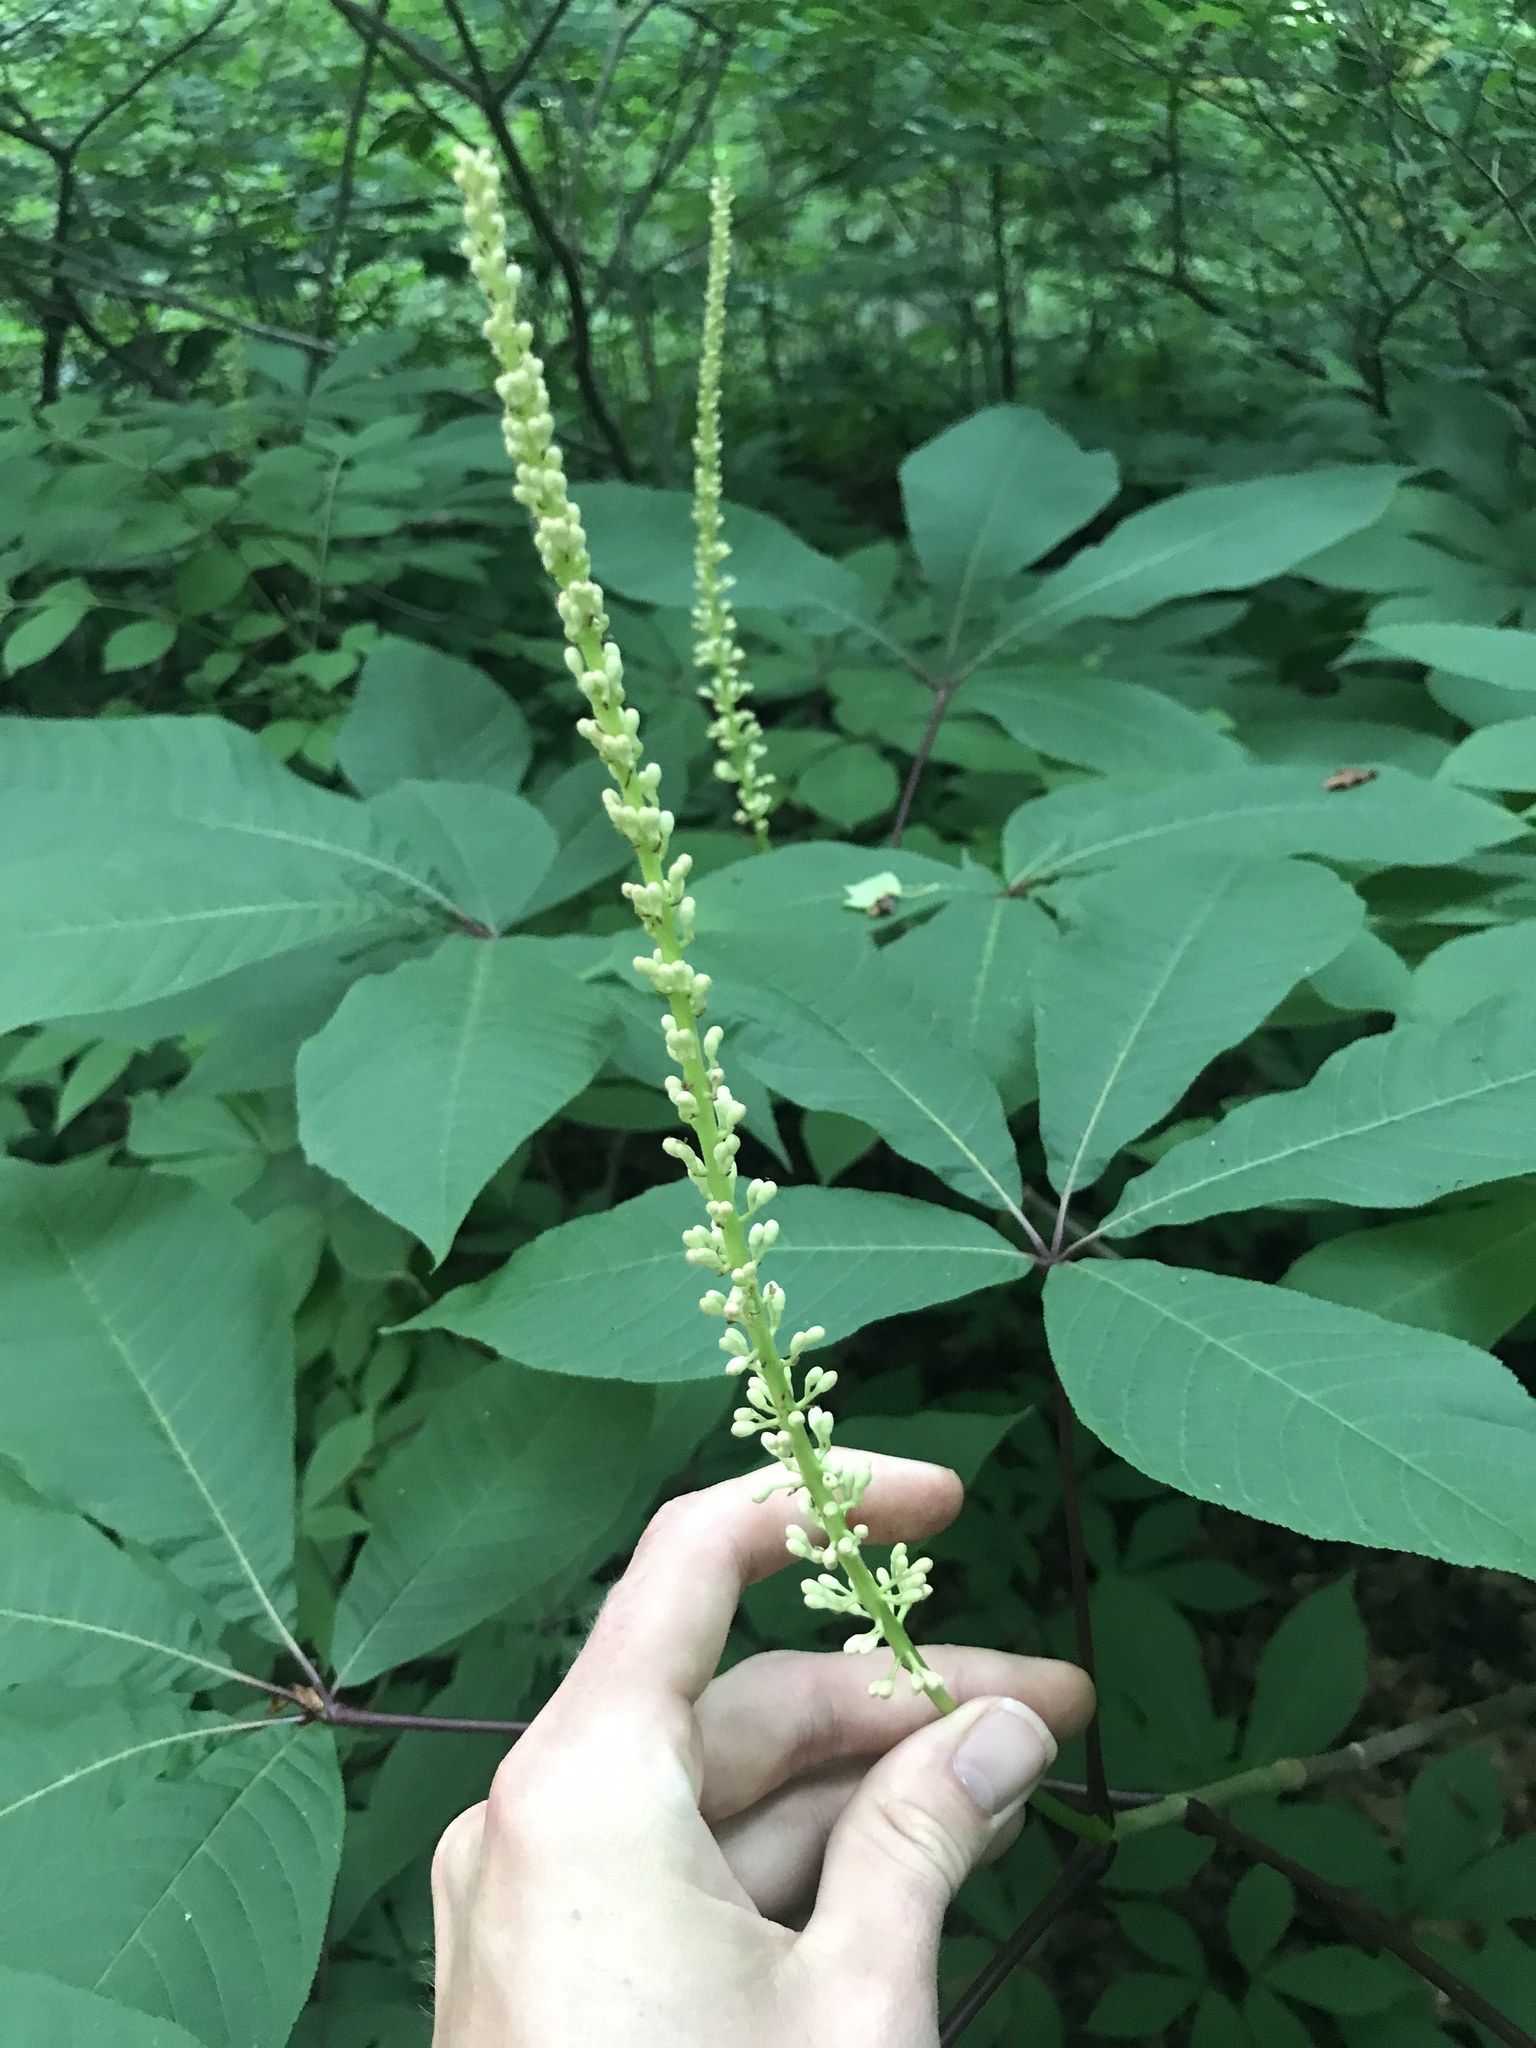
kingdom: Plantae
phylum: Tracheophyta
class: Magnoliopsida
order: Sapindales
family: Sapindaceae
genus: Aesculus
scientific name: Aesculus parviflora
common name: Bottlebrush buckeye
